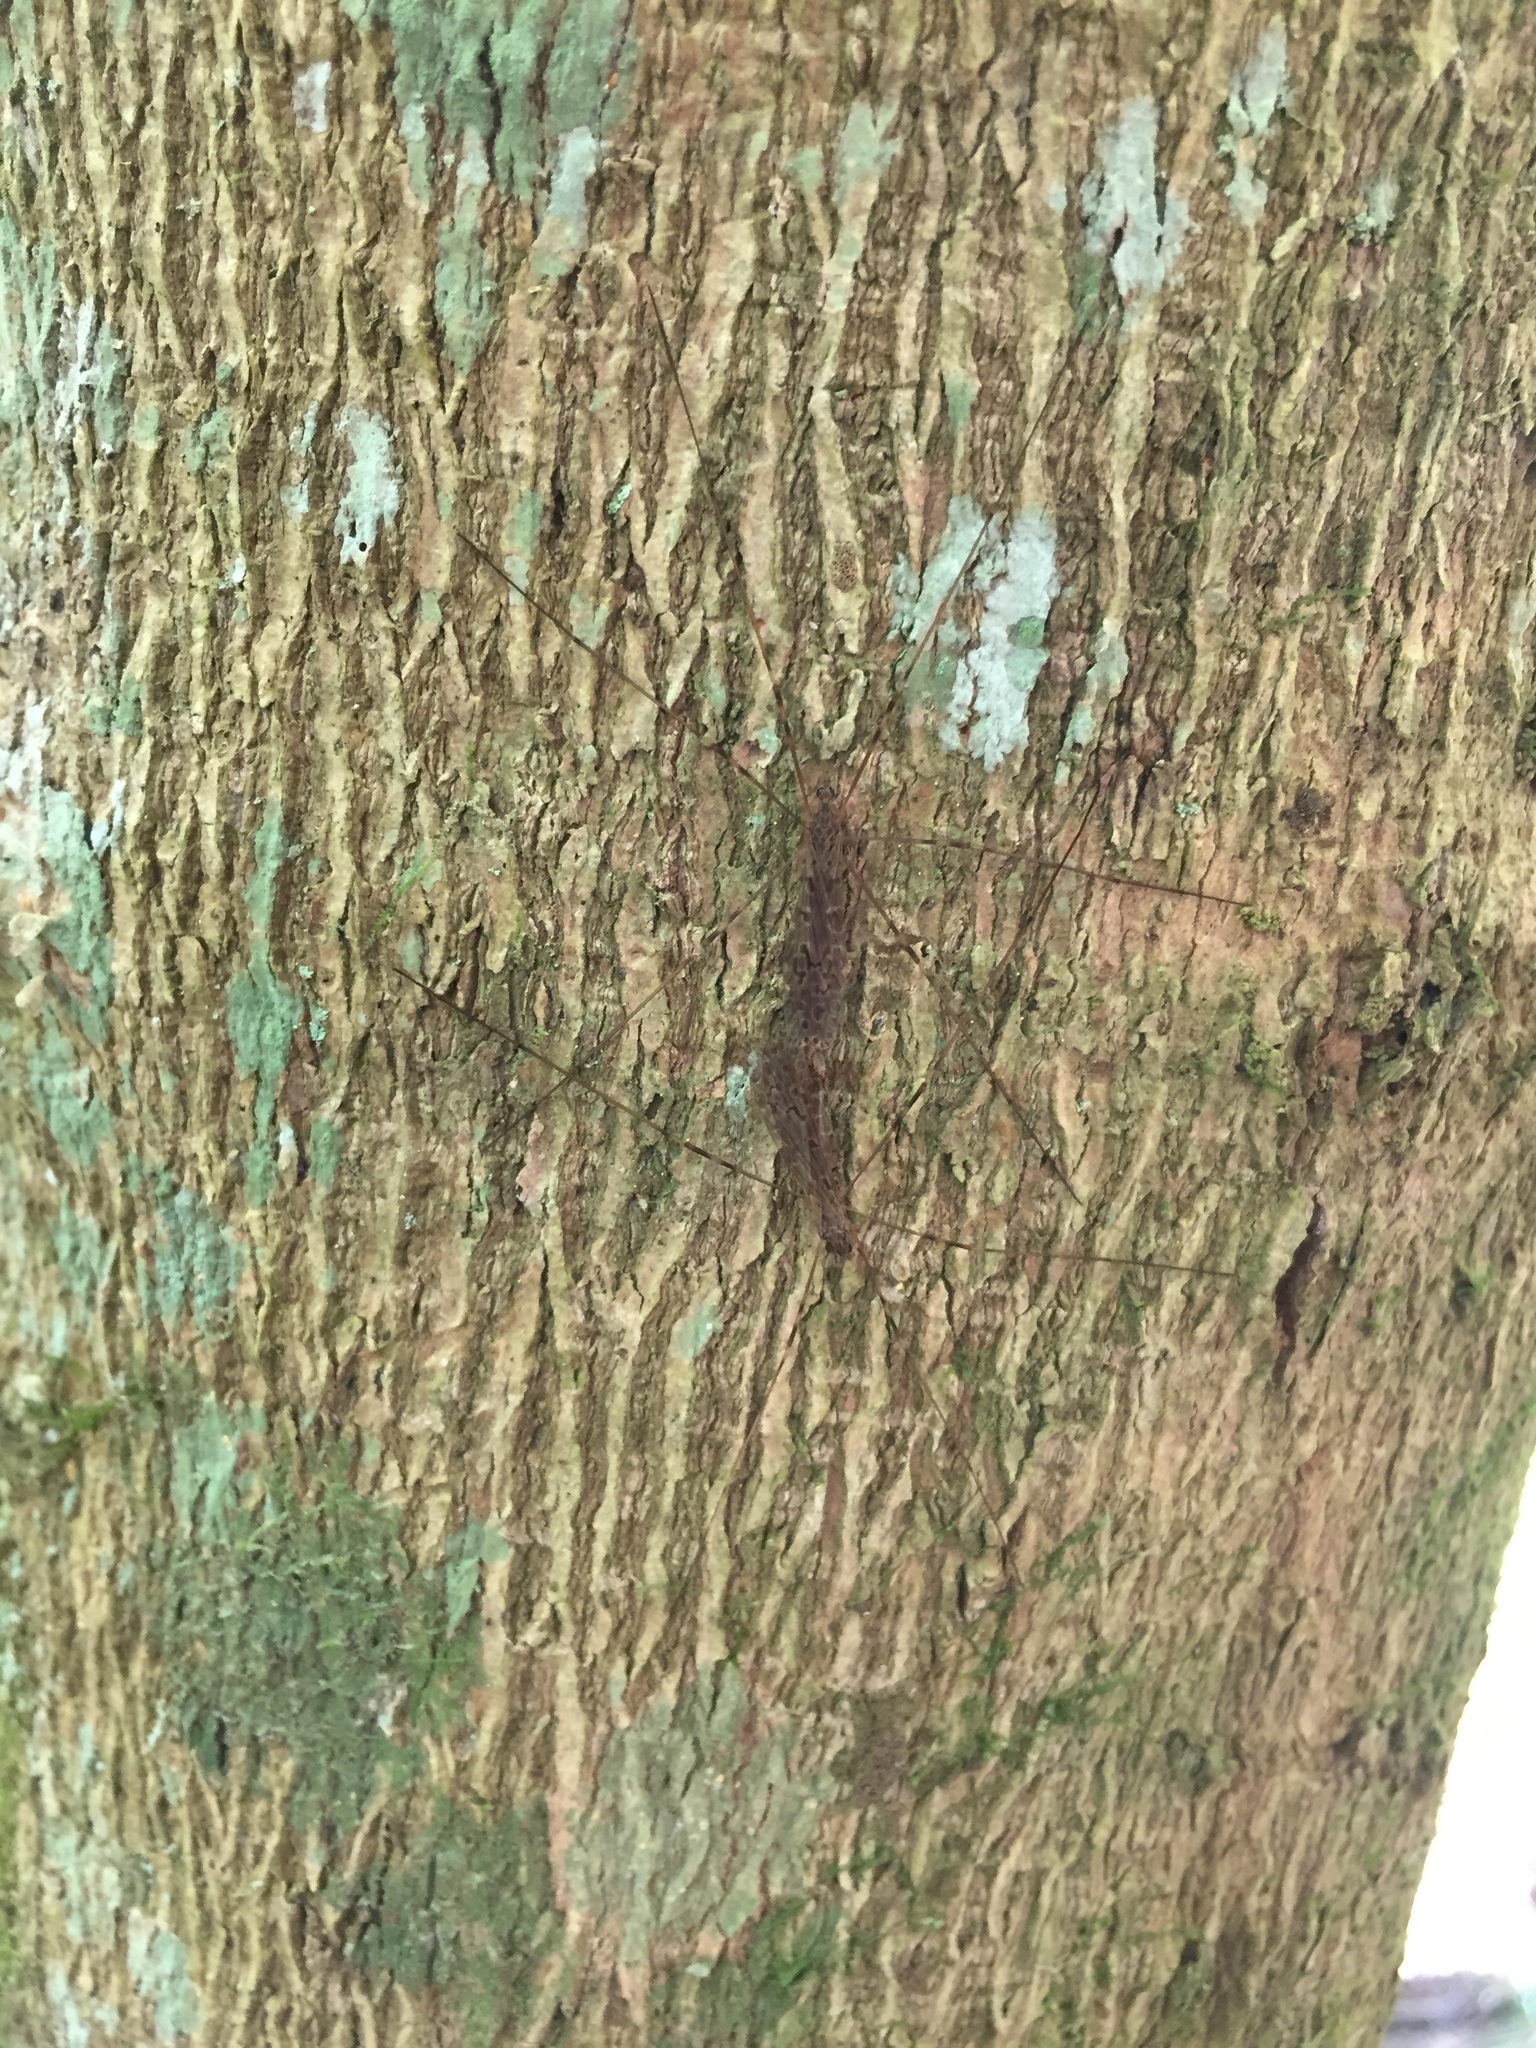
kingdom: Animalia
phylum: Arthropoda
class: Insecta
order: Diptera
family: Limoniidae
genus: Austrolimnophila
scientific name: Austrolimnophila crassipes
